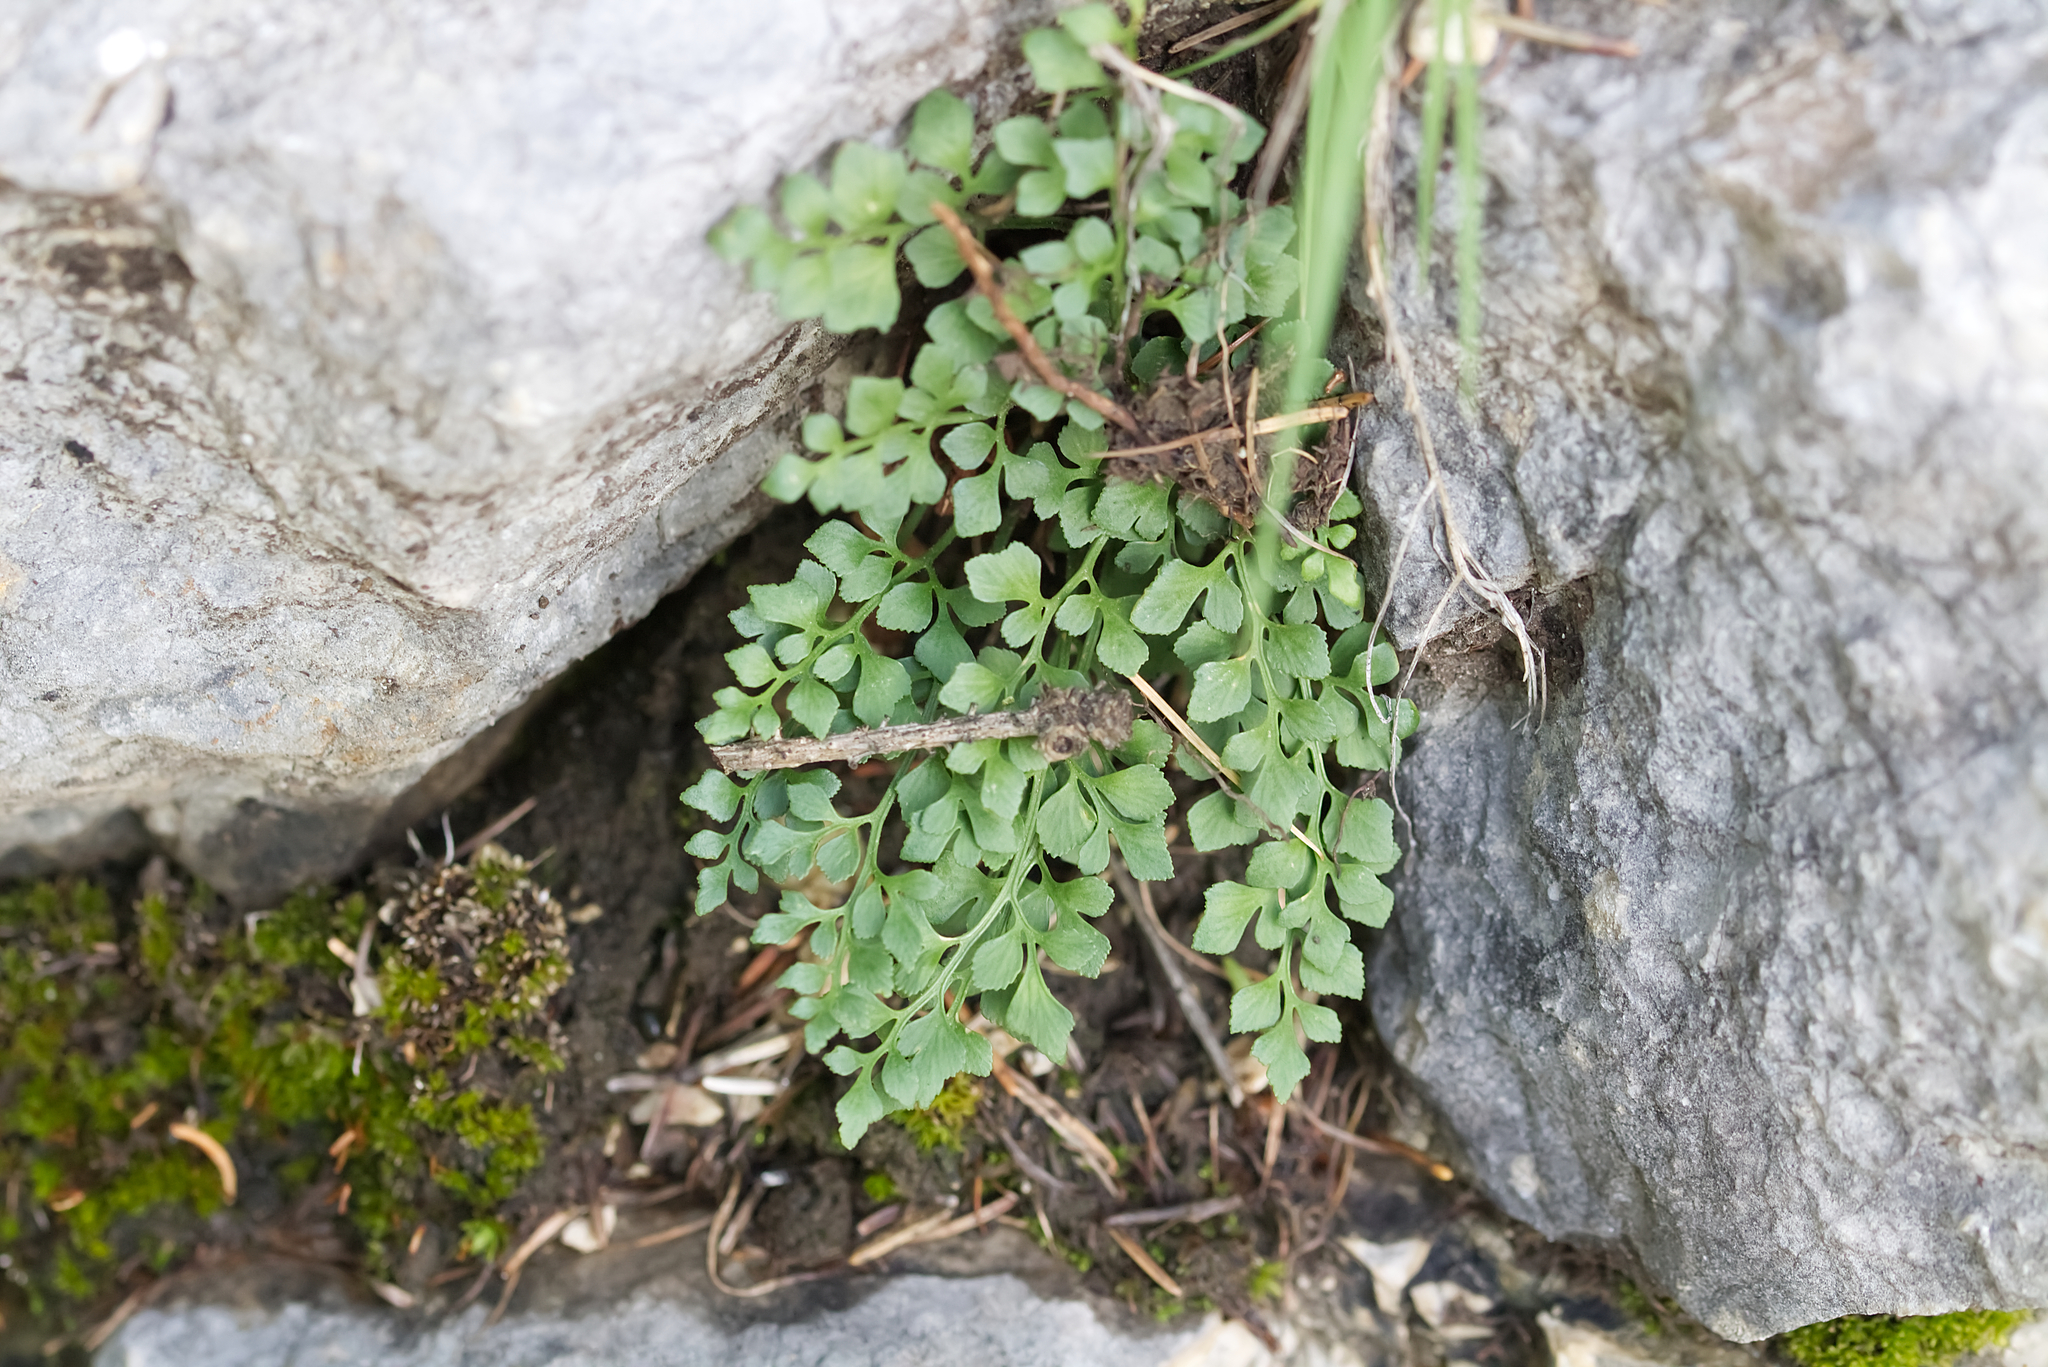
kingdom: Plantae
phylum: Tracheophyta
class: Polypodiopsida
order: Polypodiales
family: Aspleniaceae
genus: Asplenium
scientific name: Asplenium ruta-muraria
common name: Wall-rue
